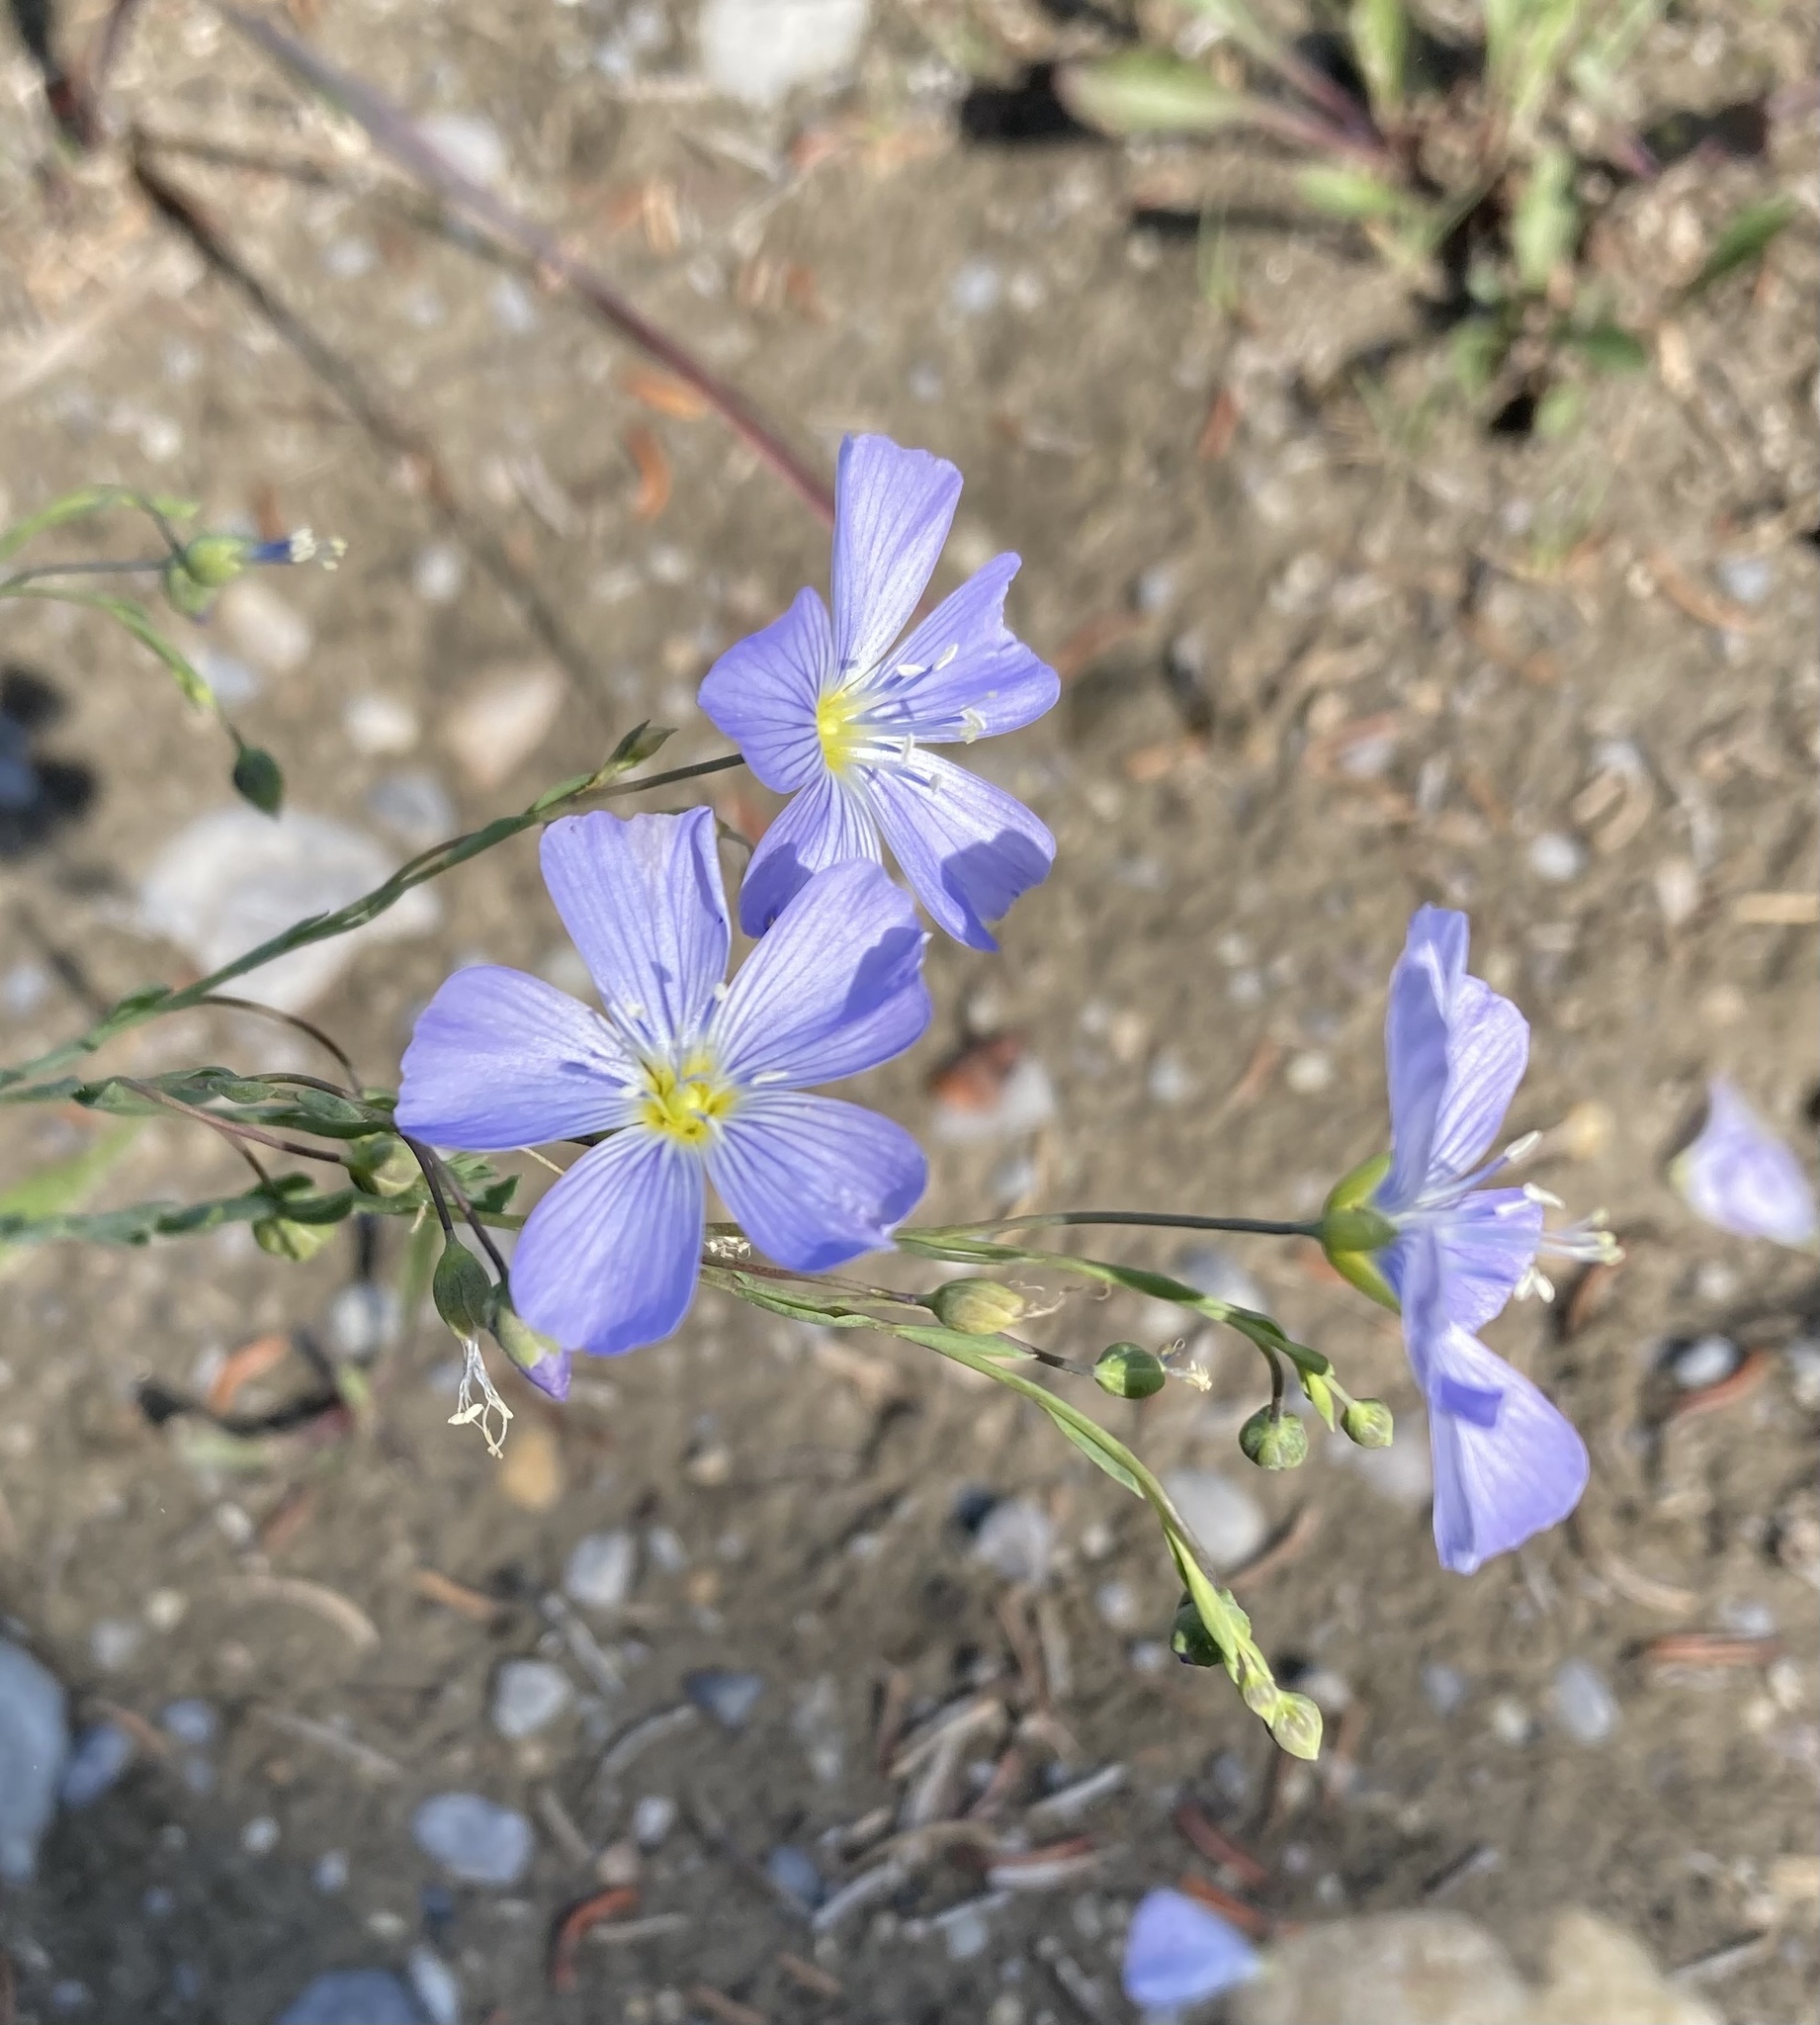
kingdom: Plantae
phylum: Tracheophyta
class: Magnoliopsida
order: Malpighiales
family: Linaceae
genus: Linum
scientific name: Linum lewisii
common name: Prairie flax
